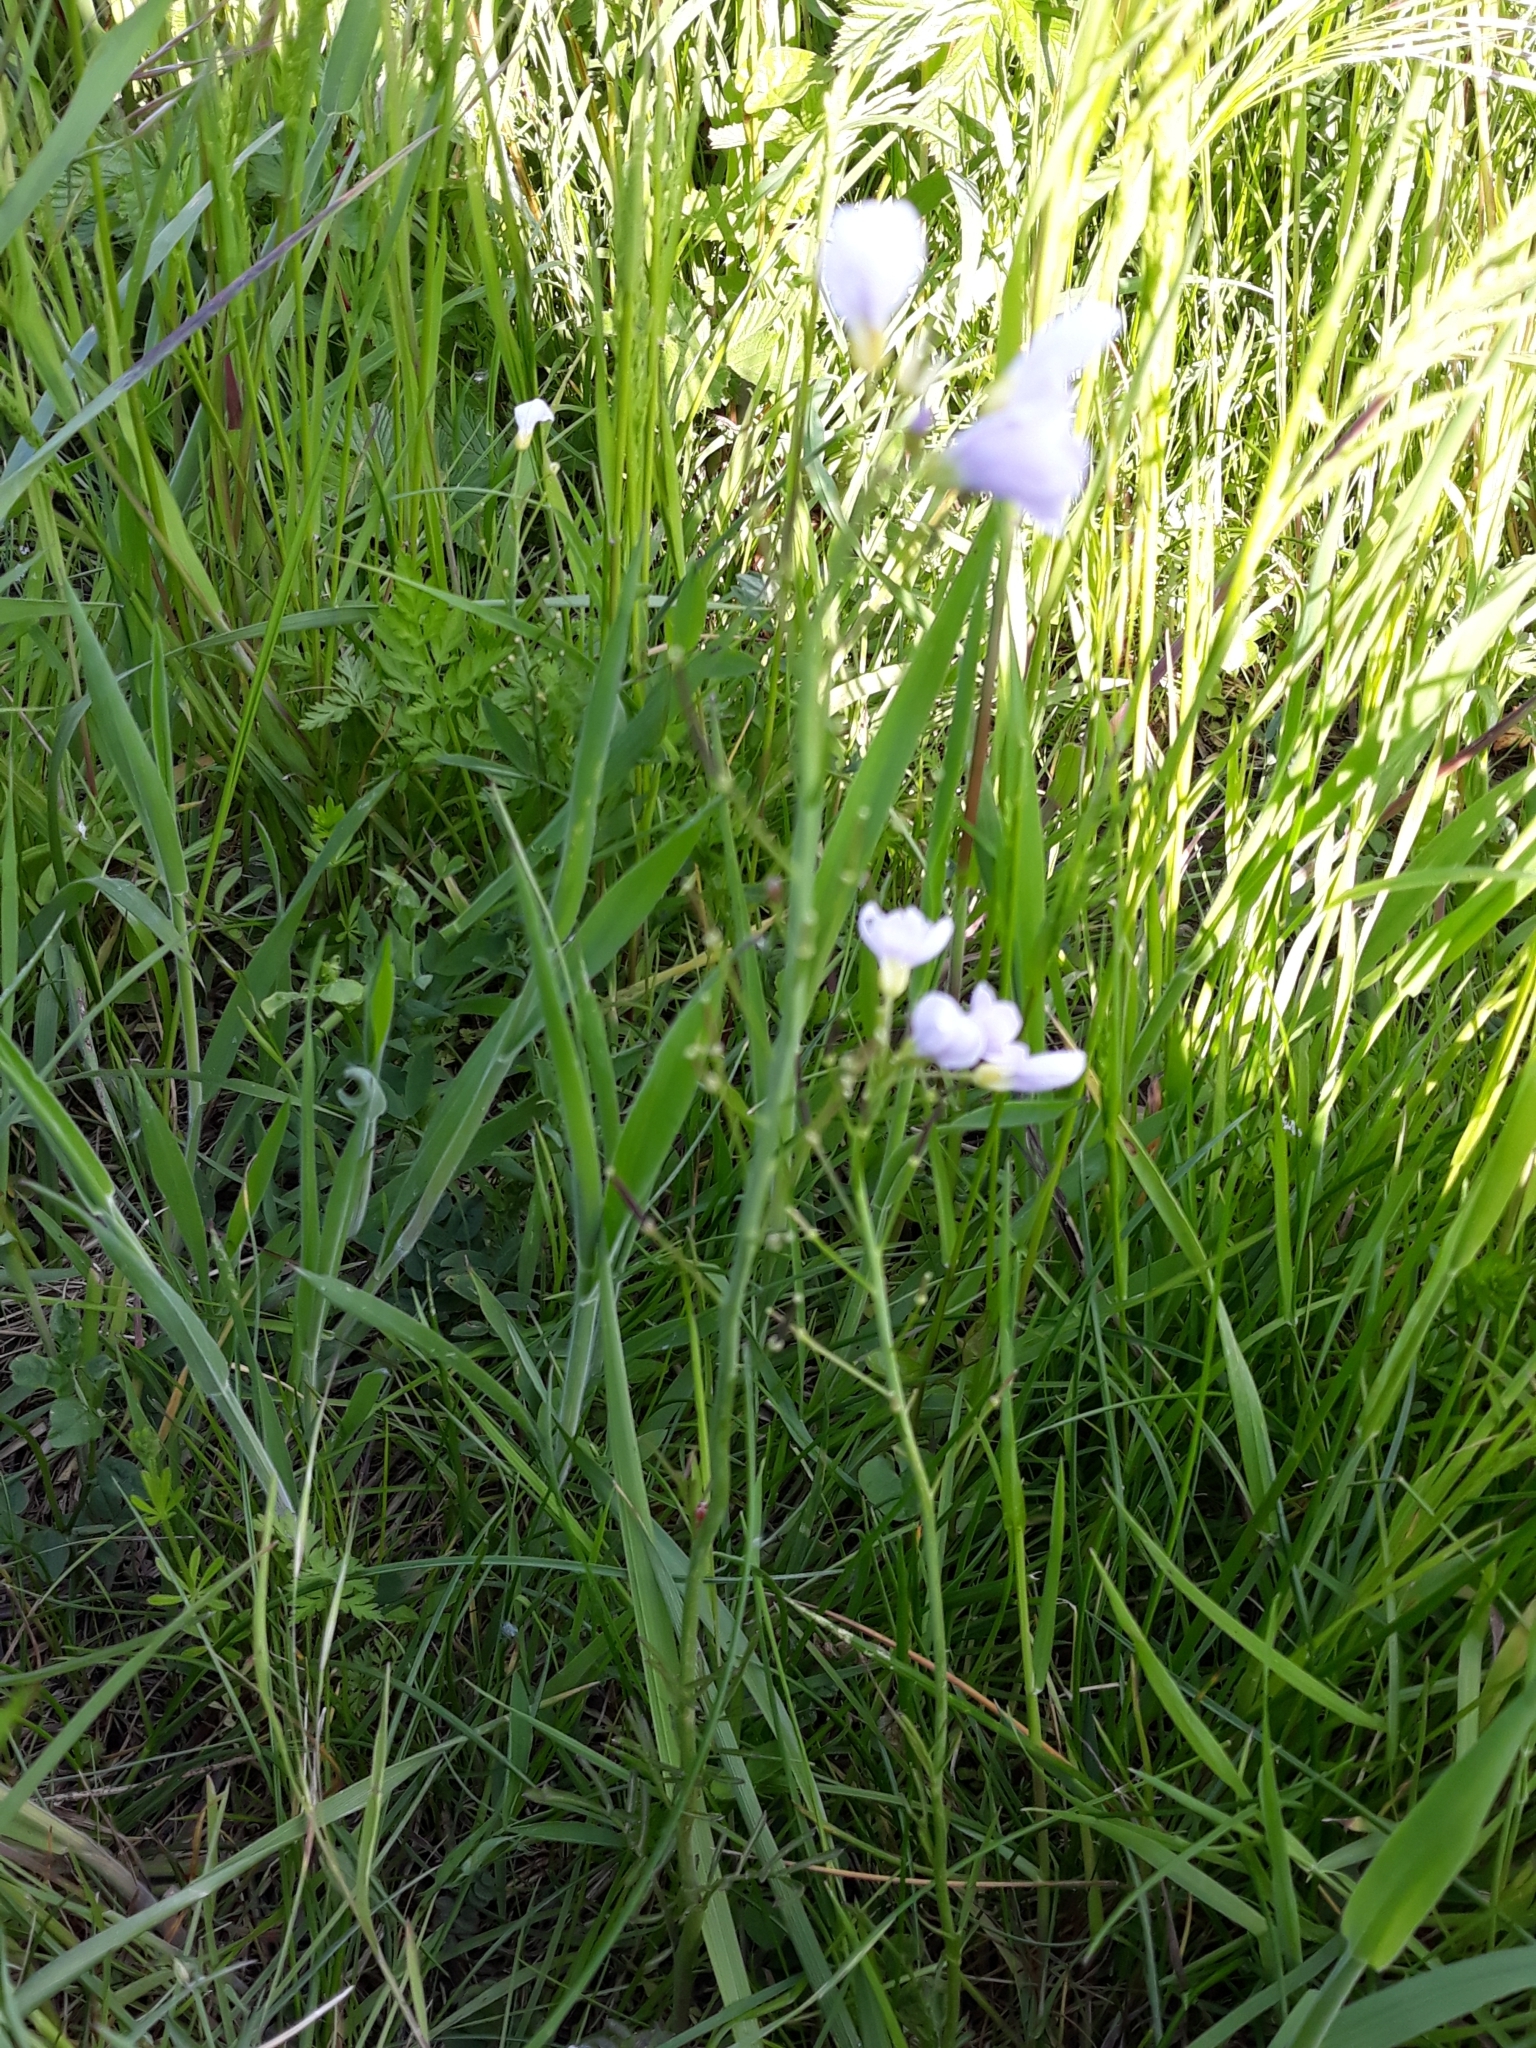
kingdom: Plantae
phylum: Tracheophyta
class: Magnoliopsida
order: Brassicales
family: Brassicaceae
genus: Cardamine
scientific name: Cardamine pratensis
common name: Cuckoo flower
